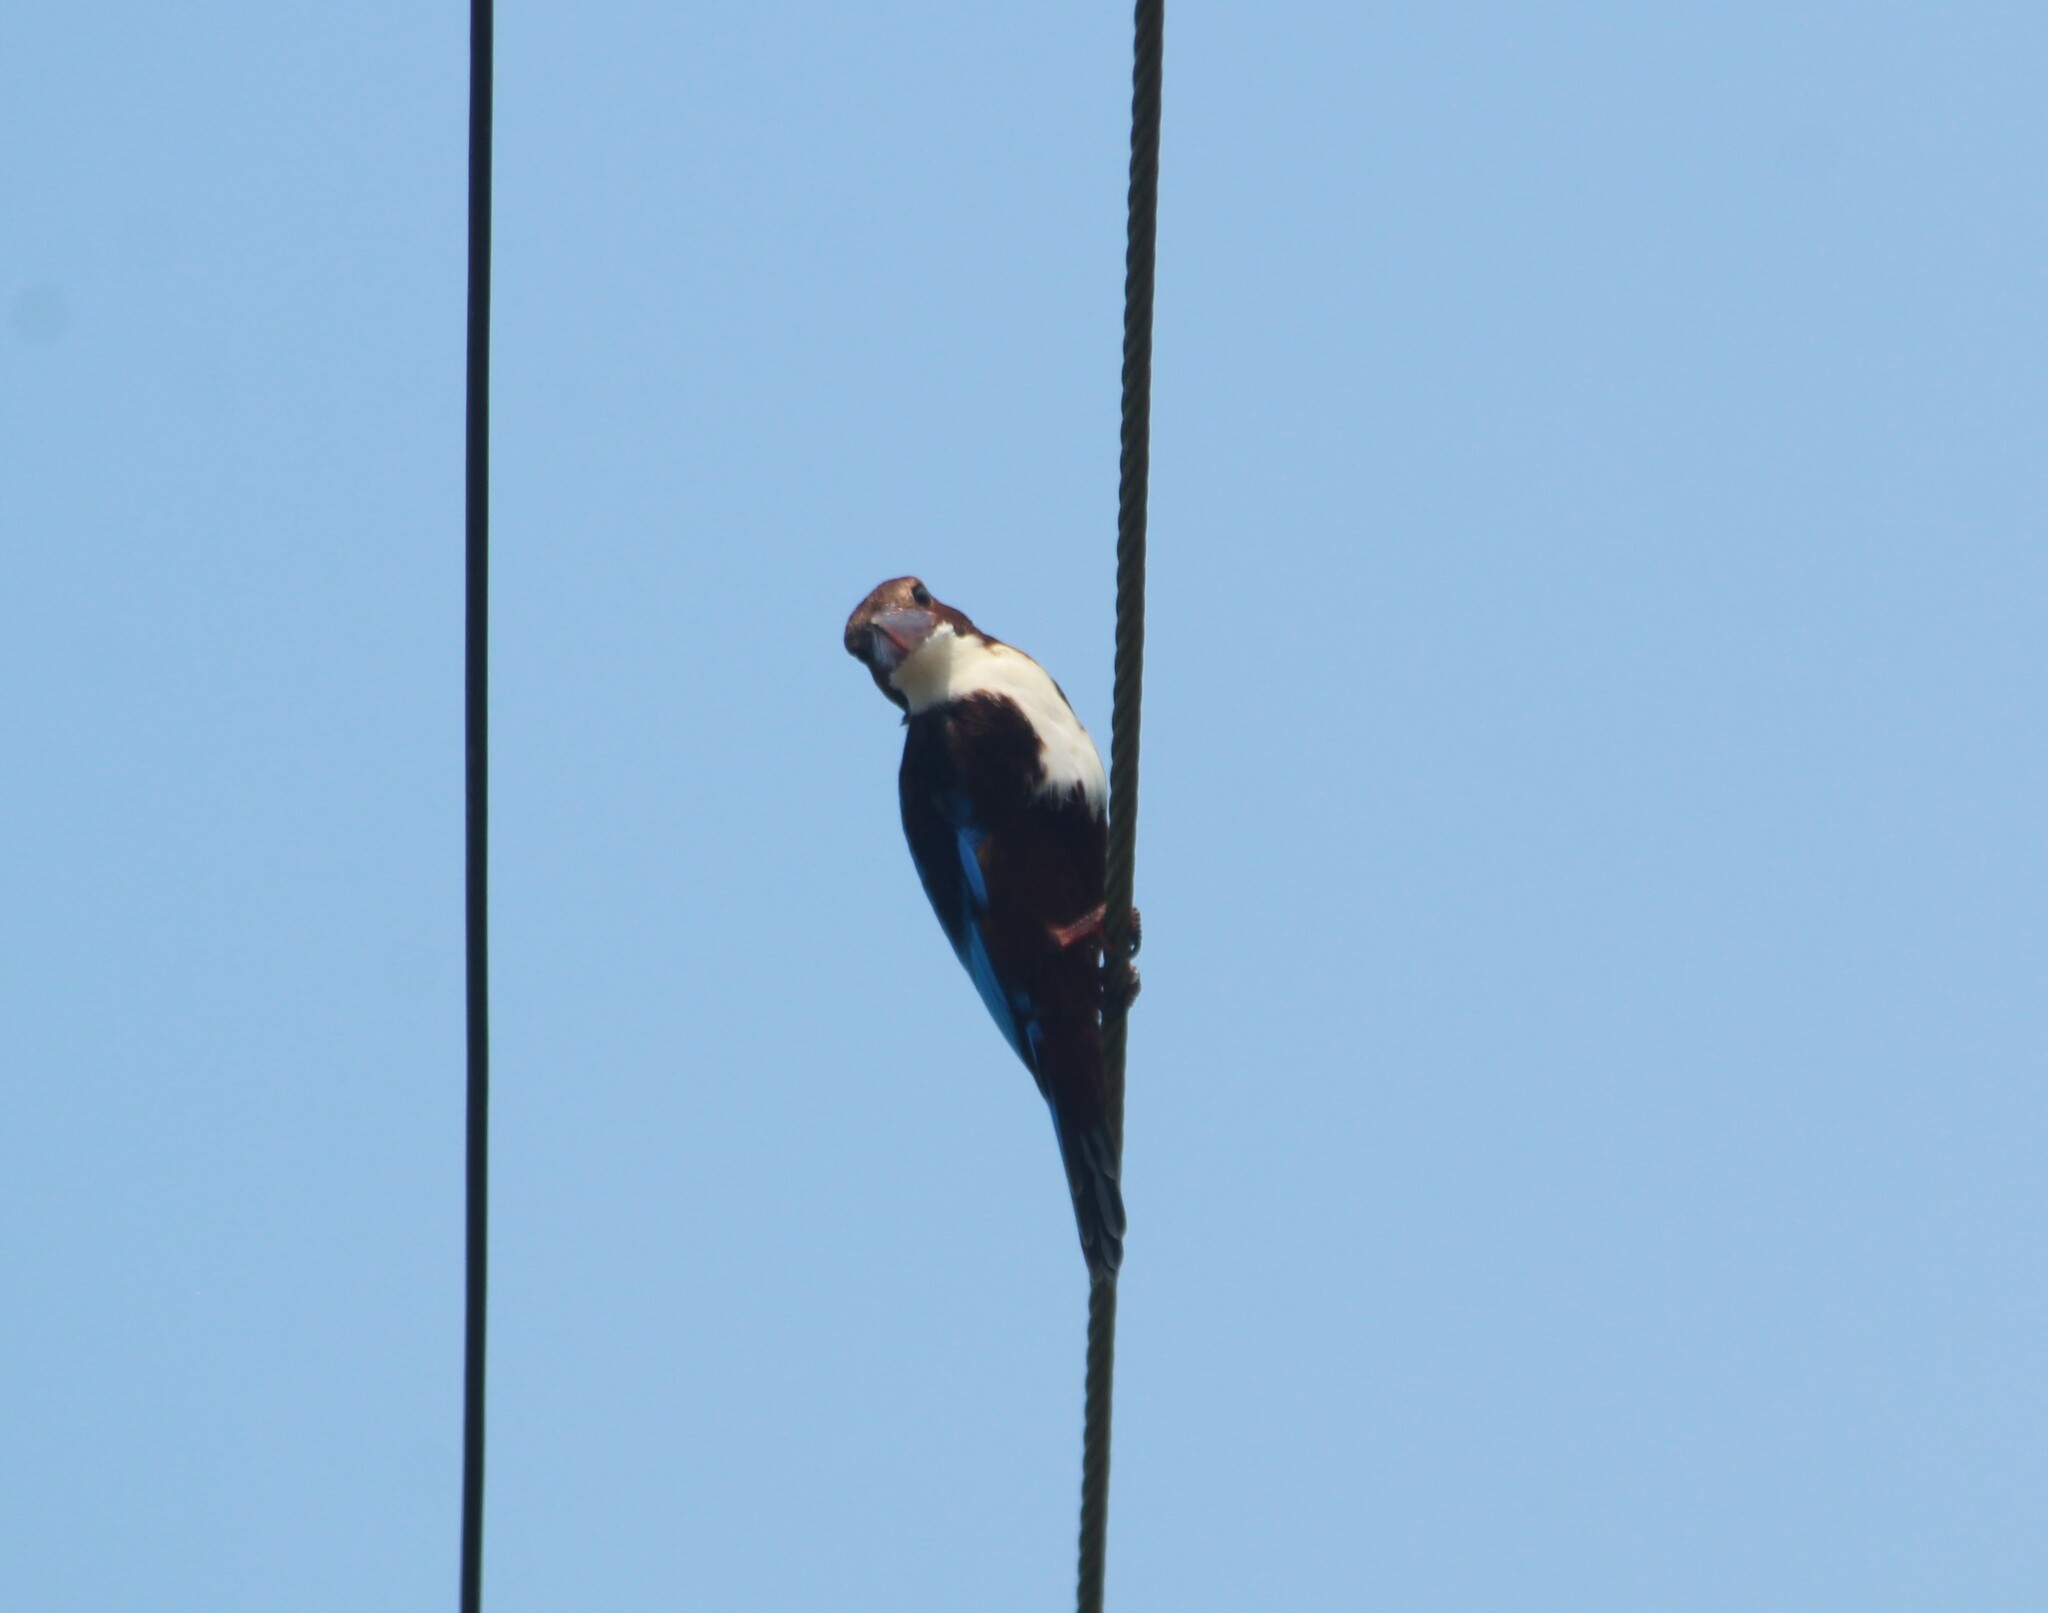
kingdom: Animalia
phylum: Chordata
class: Aves
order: Coraciiformes
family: Alcedinidae
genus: Halcyon
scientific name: Halcyon smyrnensis
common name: White-throated kingfisher
